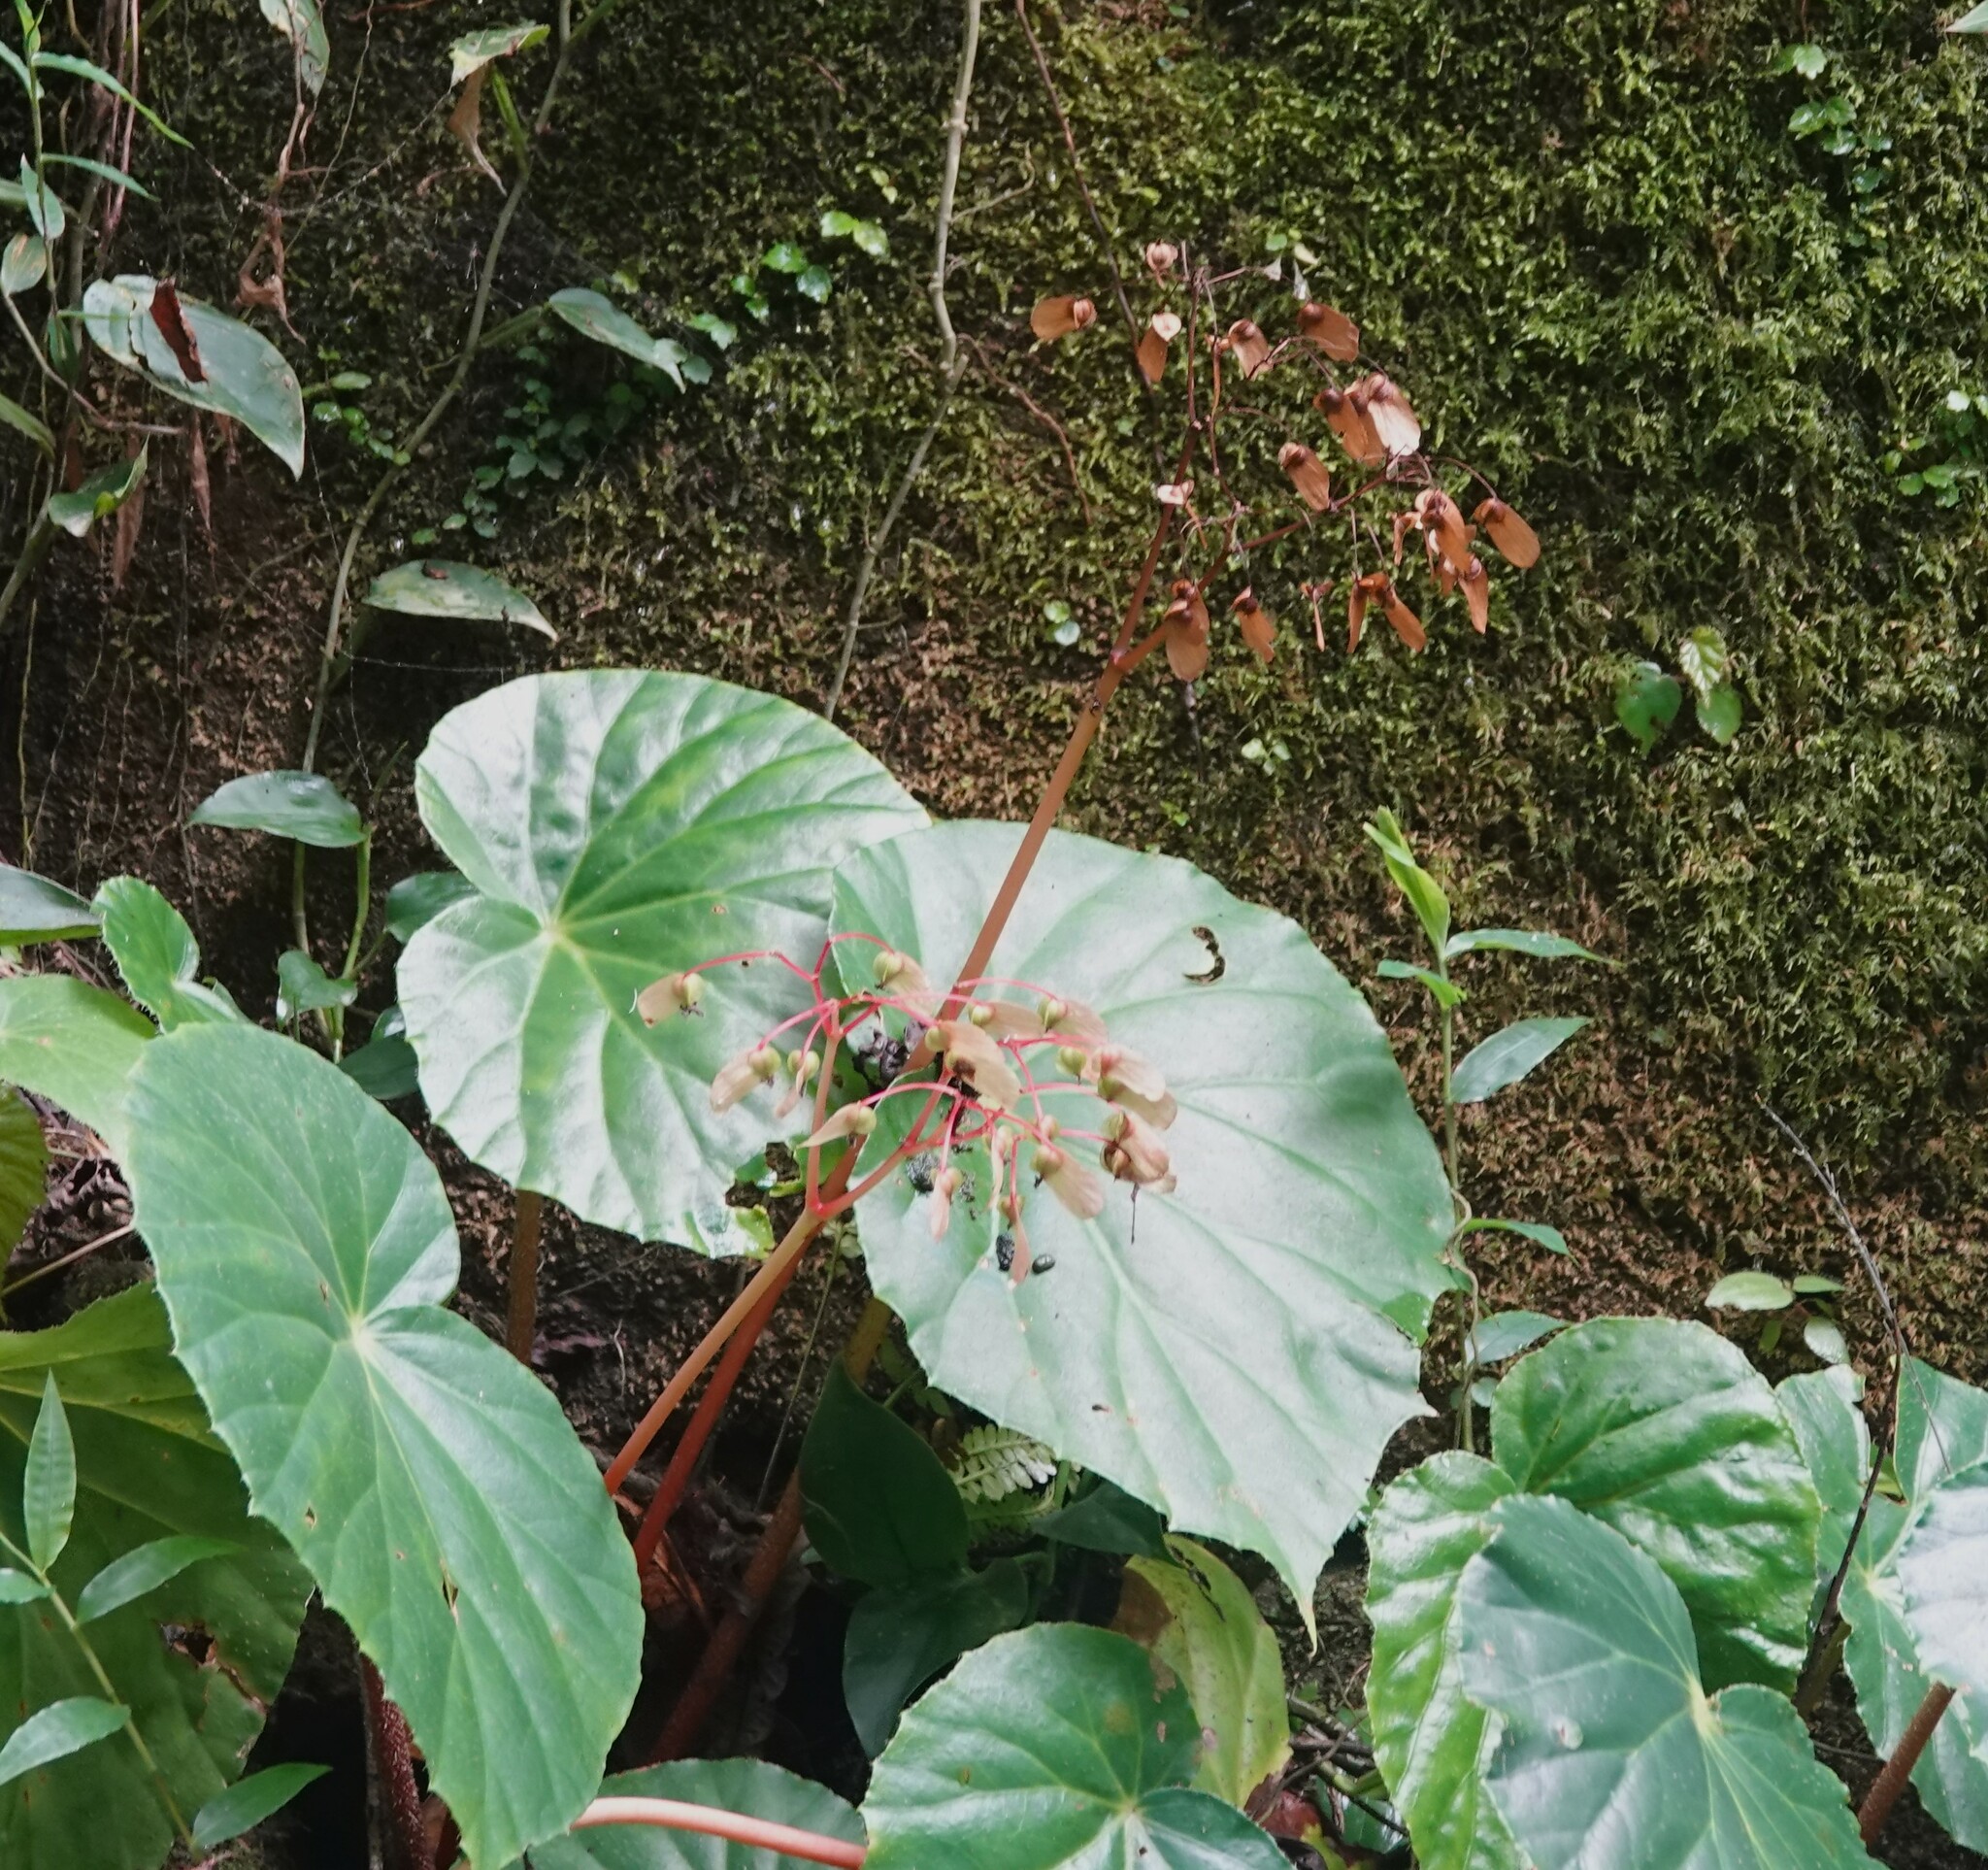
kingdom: Plantae
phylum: Tracheophyta
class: Magnoliopsida
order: Cucurbitales
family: Begoniaceae
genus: Begonia
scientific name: Begonia urophylla
